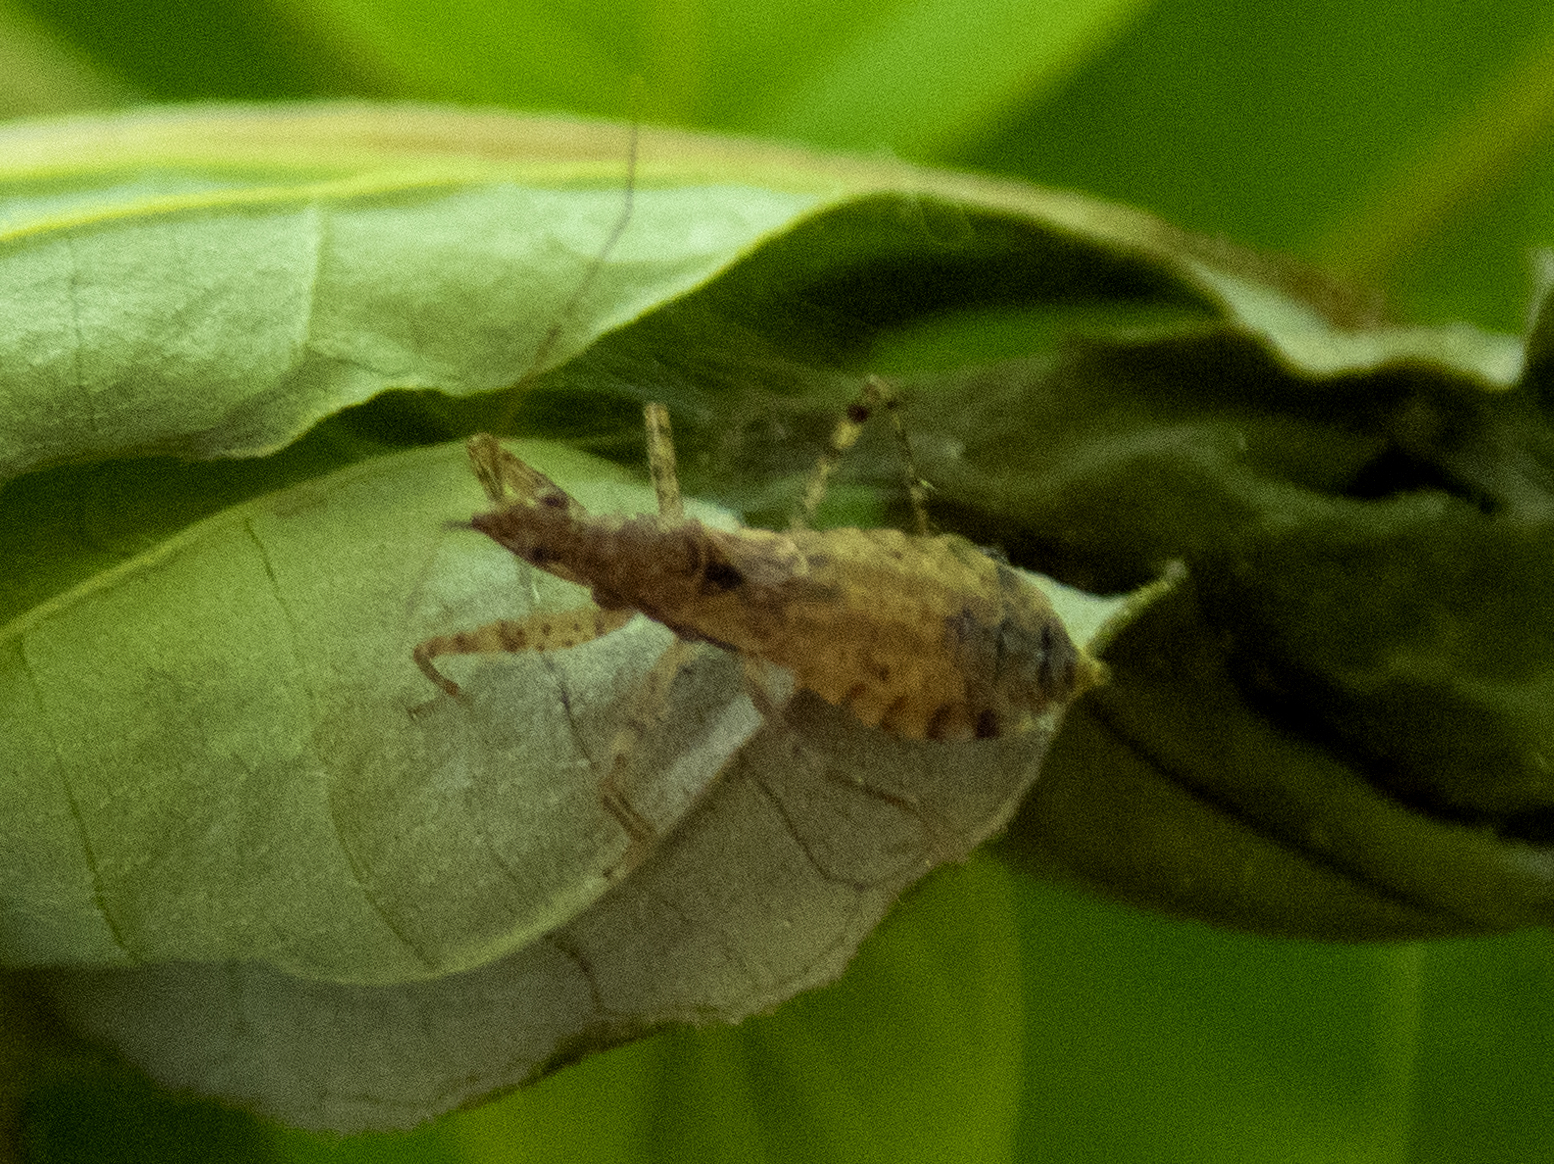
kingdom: Animalia
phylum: Arthropoda
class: Insecta
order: Hemiptera
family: Nabidae
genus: Hoplistoscelis
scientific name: Hoplistoscelis pallescens
